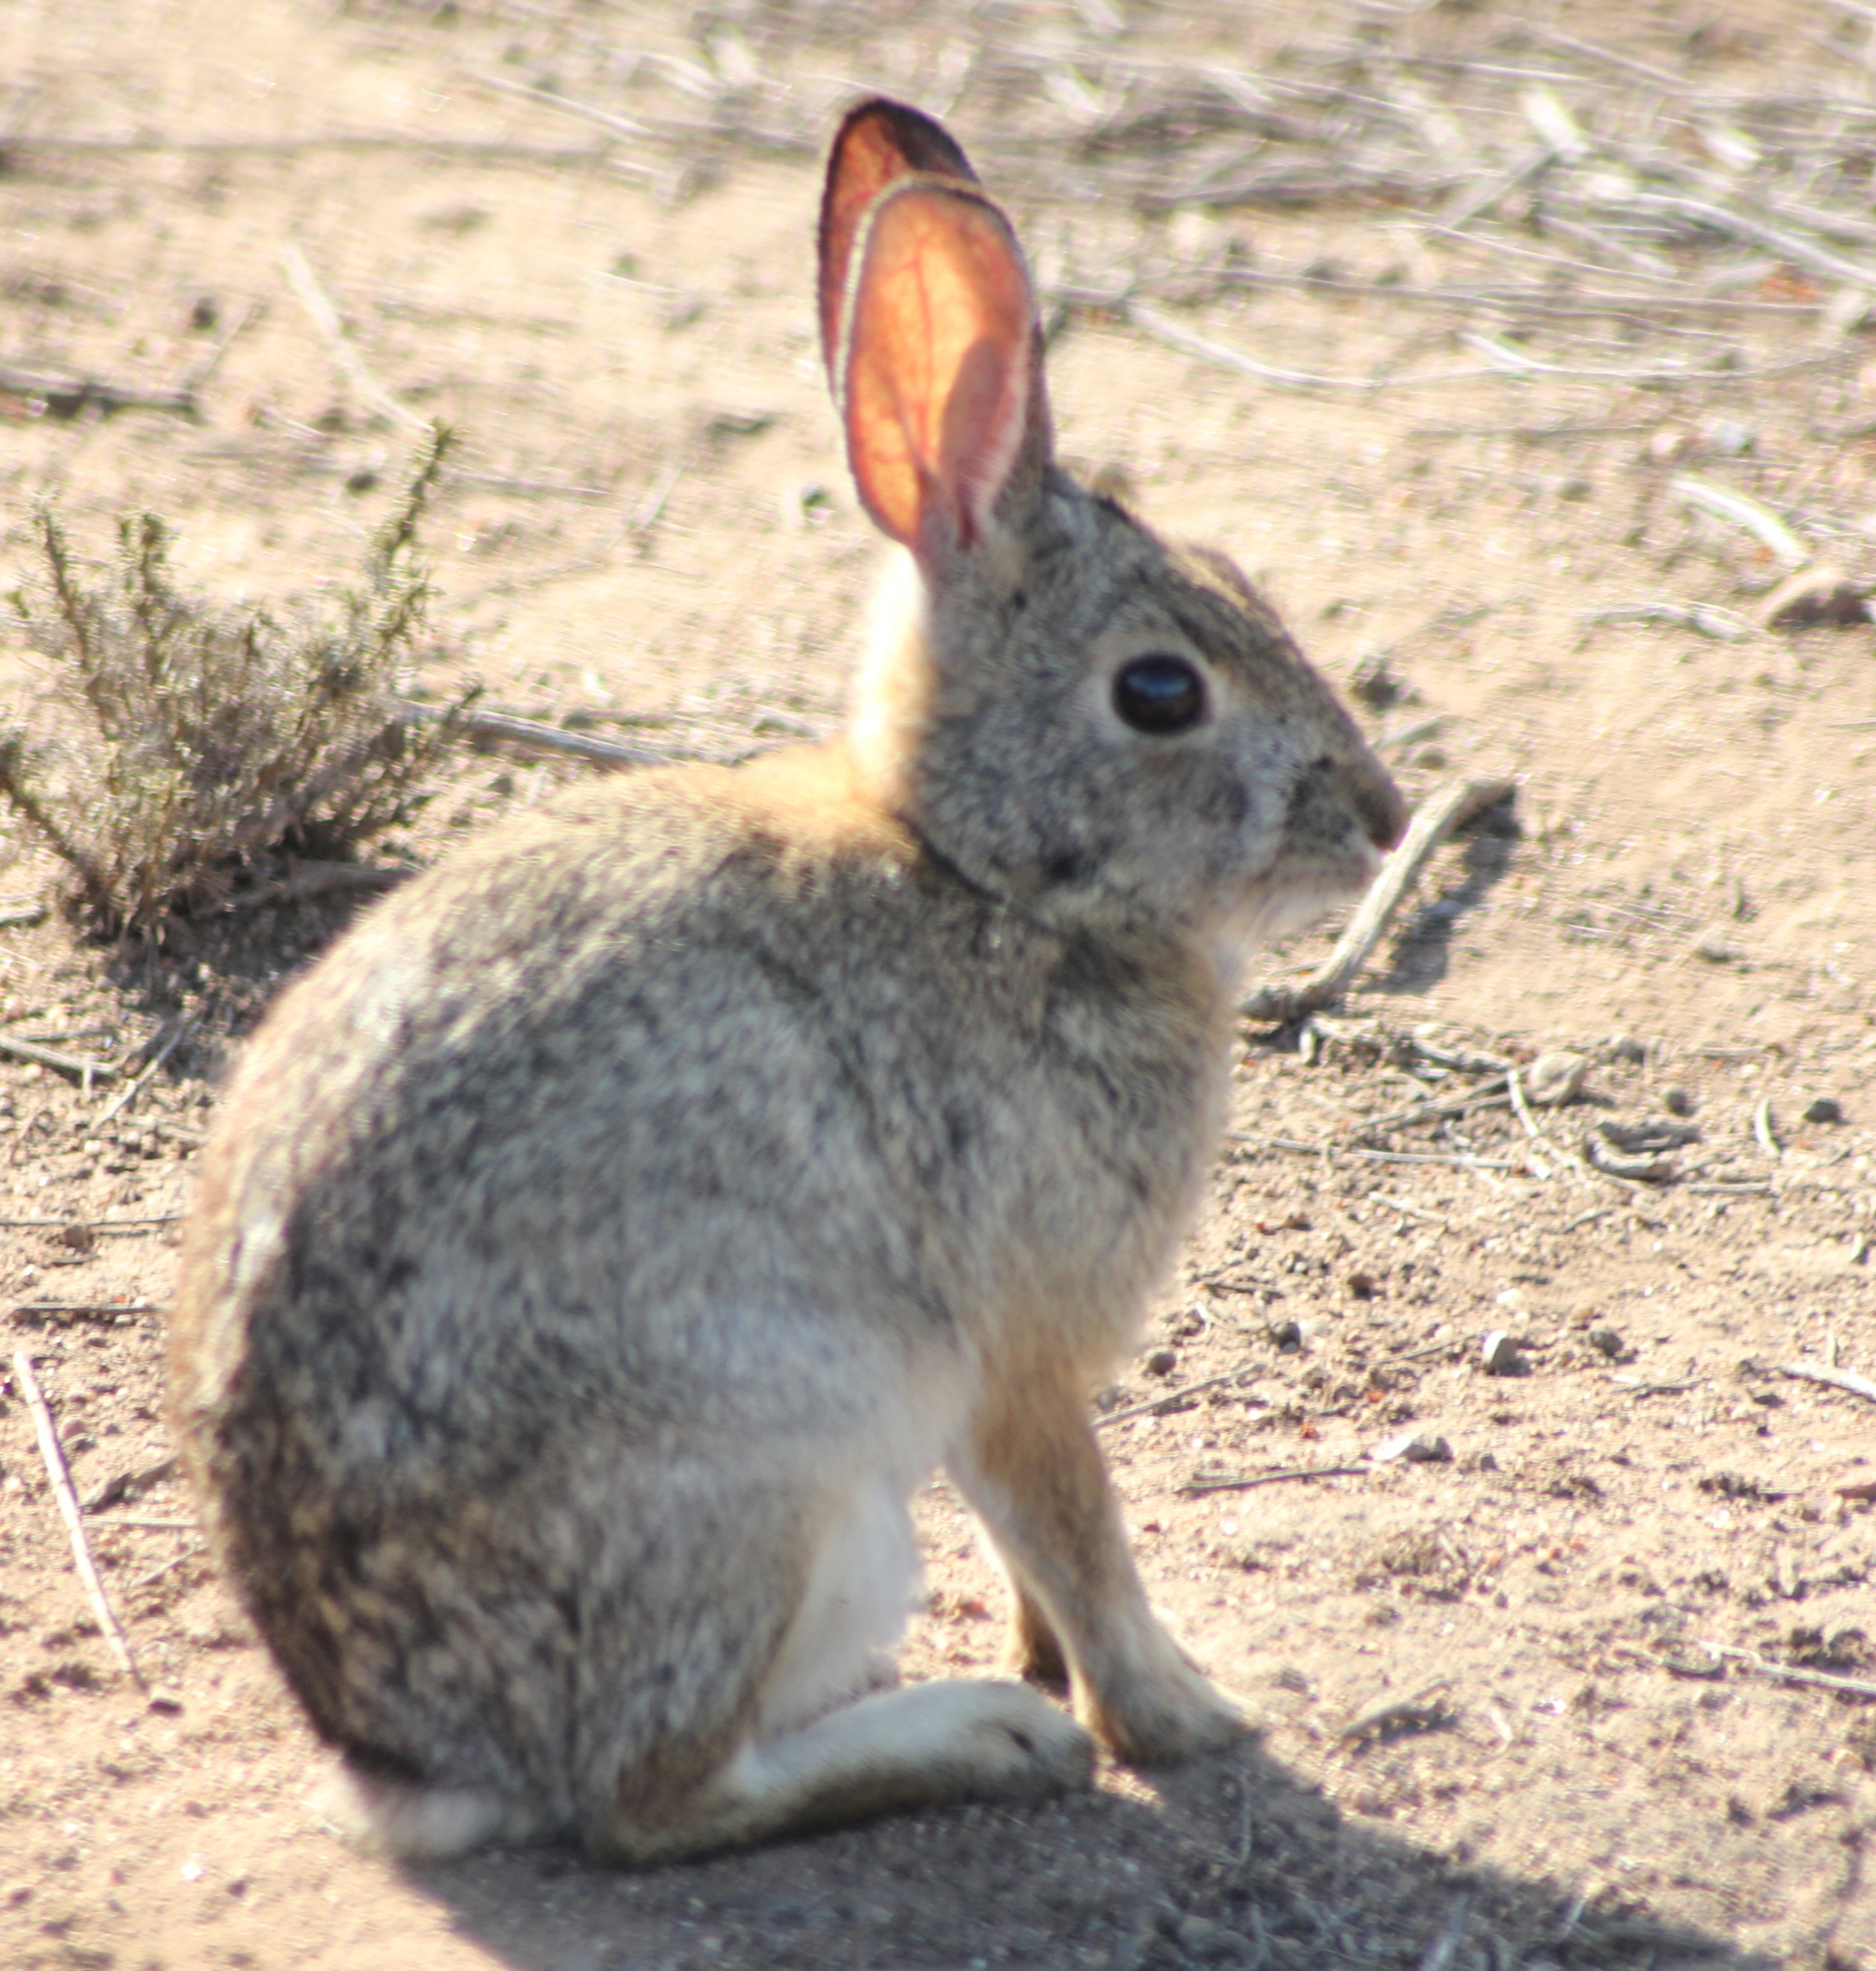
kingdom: Animalia
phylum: Chordata
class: Mammalia
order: Lagomorpha
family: Leporidae
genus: Sylvilagus
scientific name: Sylvilagus audubonii
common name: Desert cottontail
